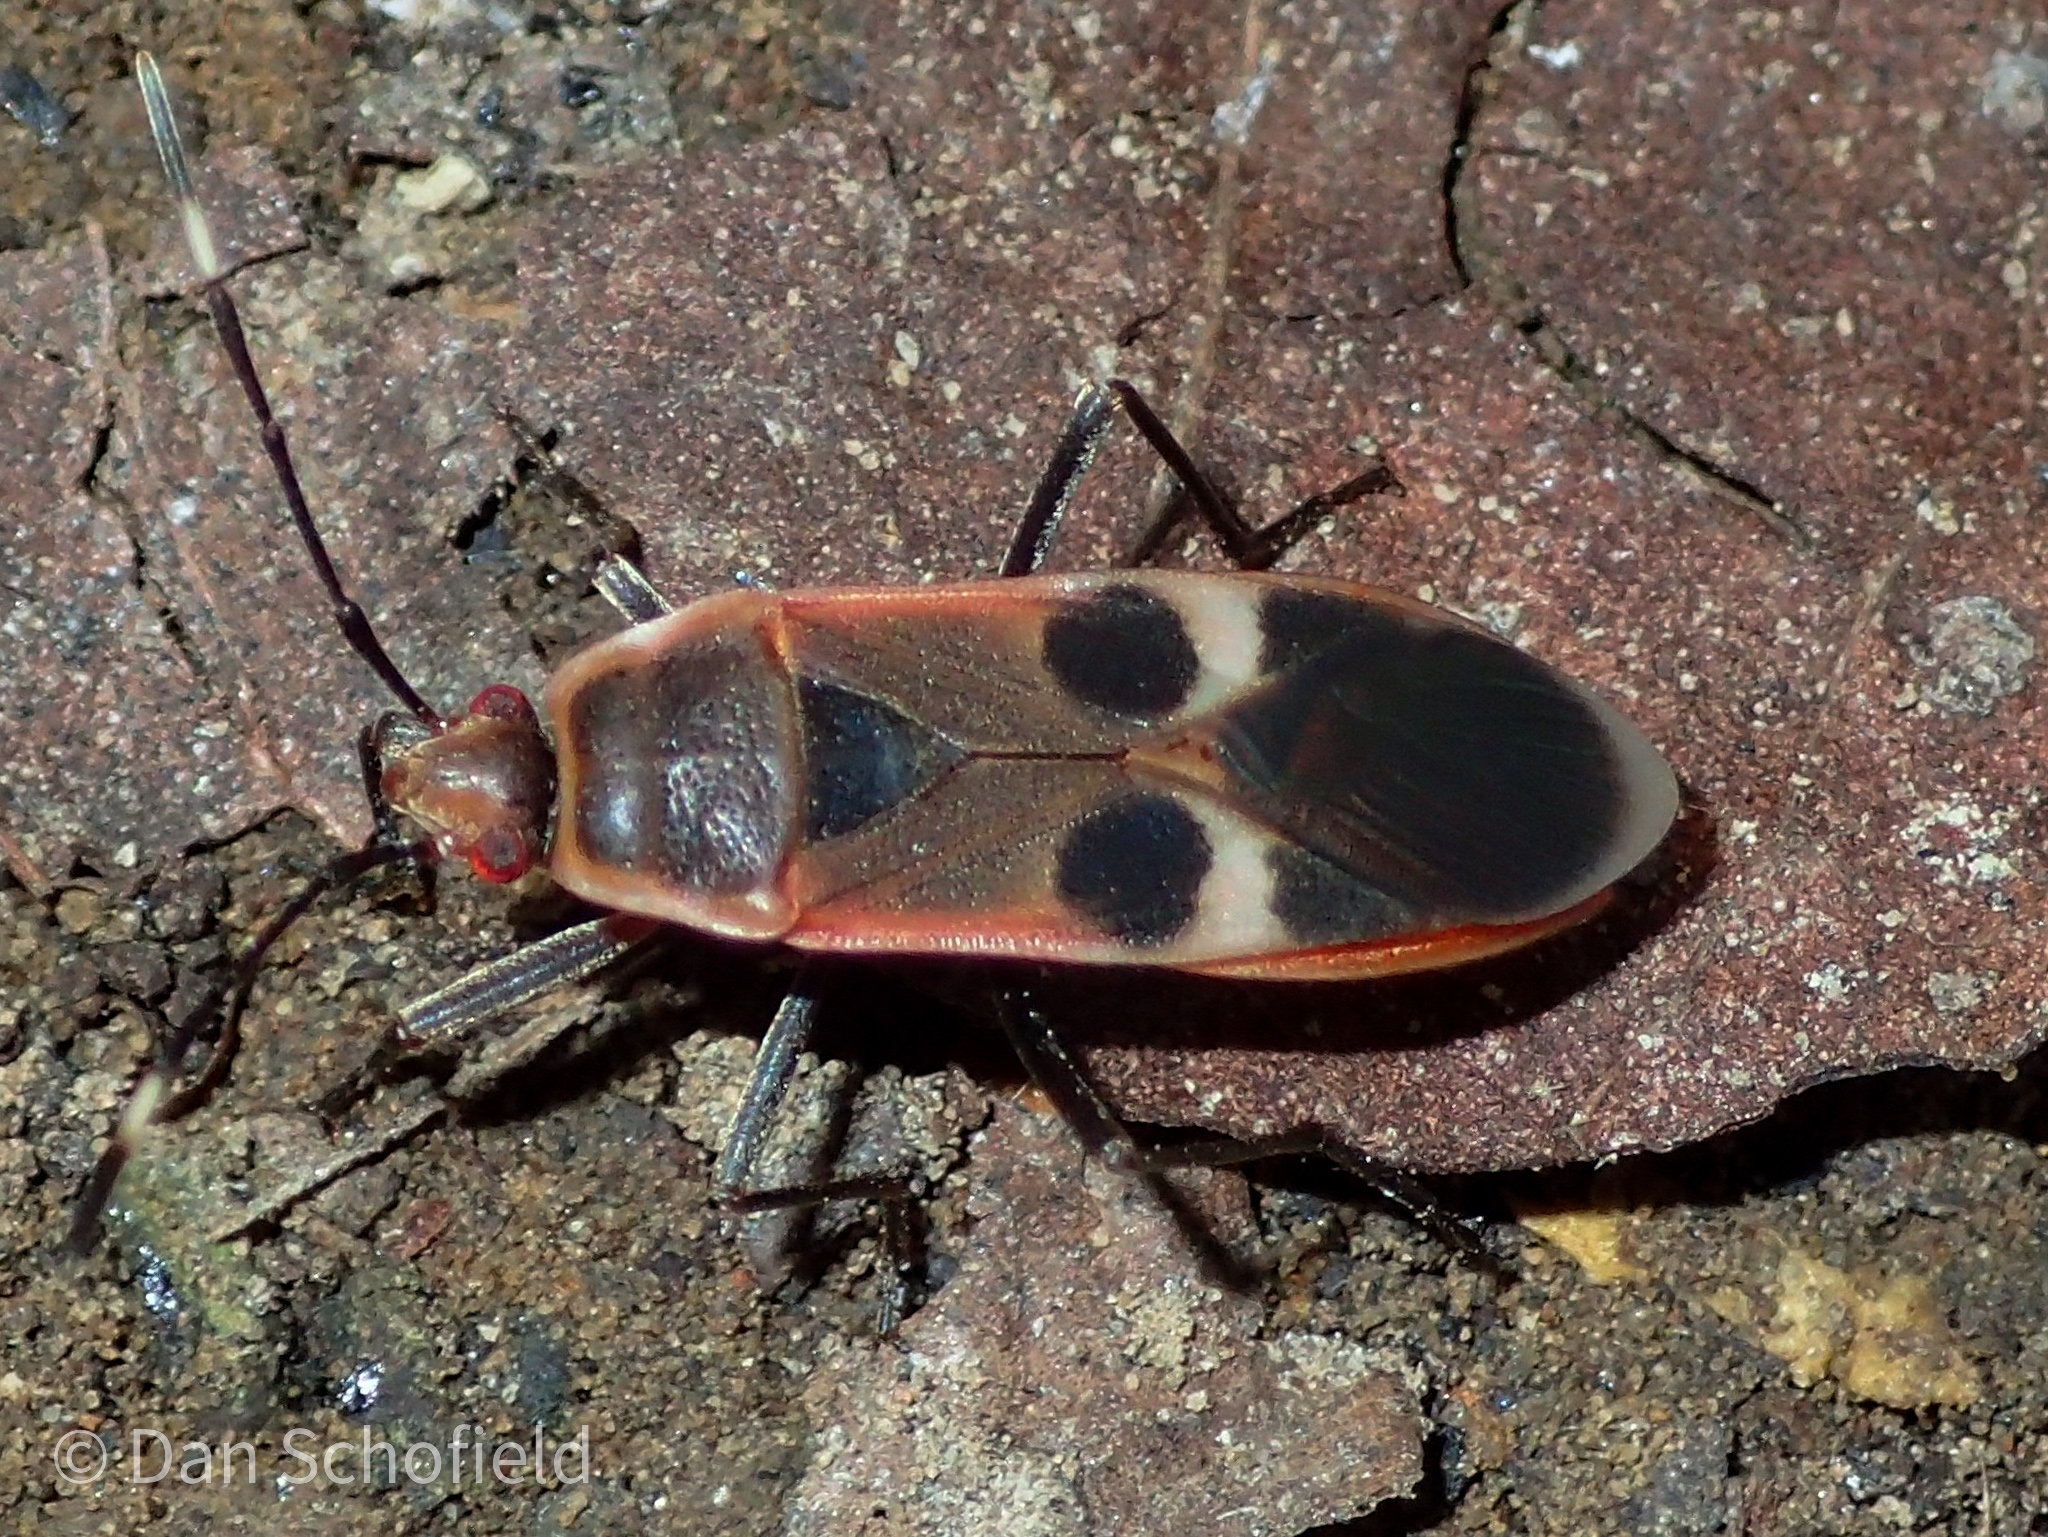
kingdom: Animalia
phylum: Arthropoda
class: Insecta
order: Hemiptera
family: Largidae
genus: Physopelta
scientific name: Physopelta gutta
